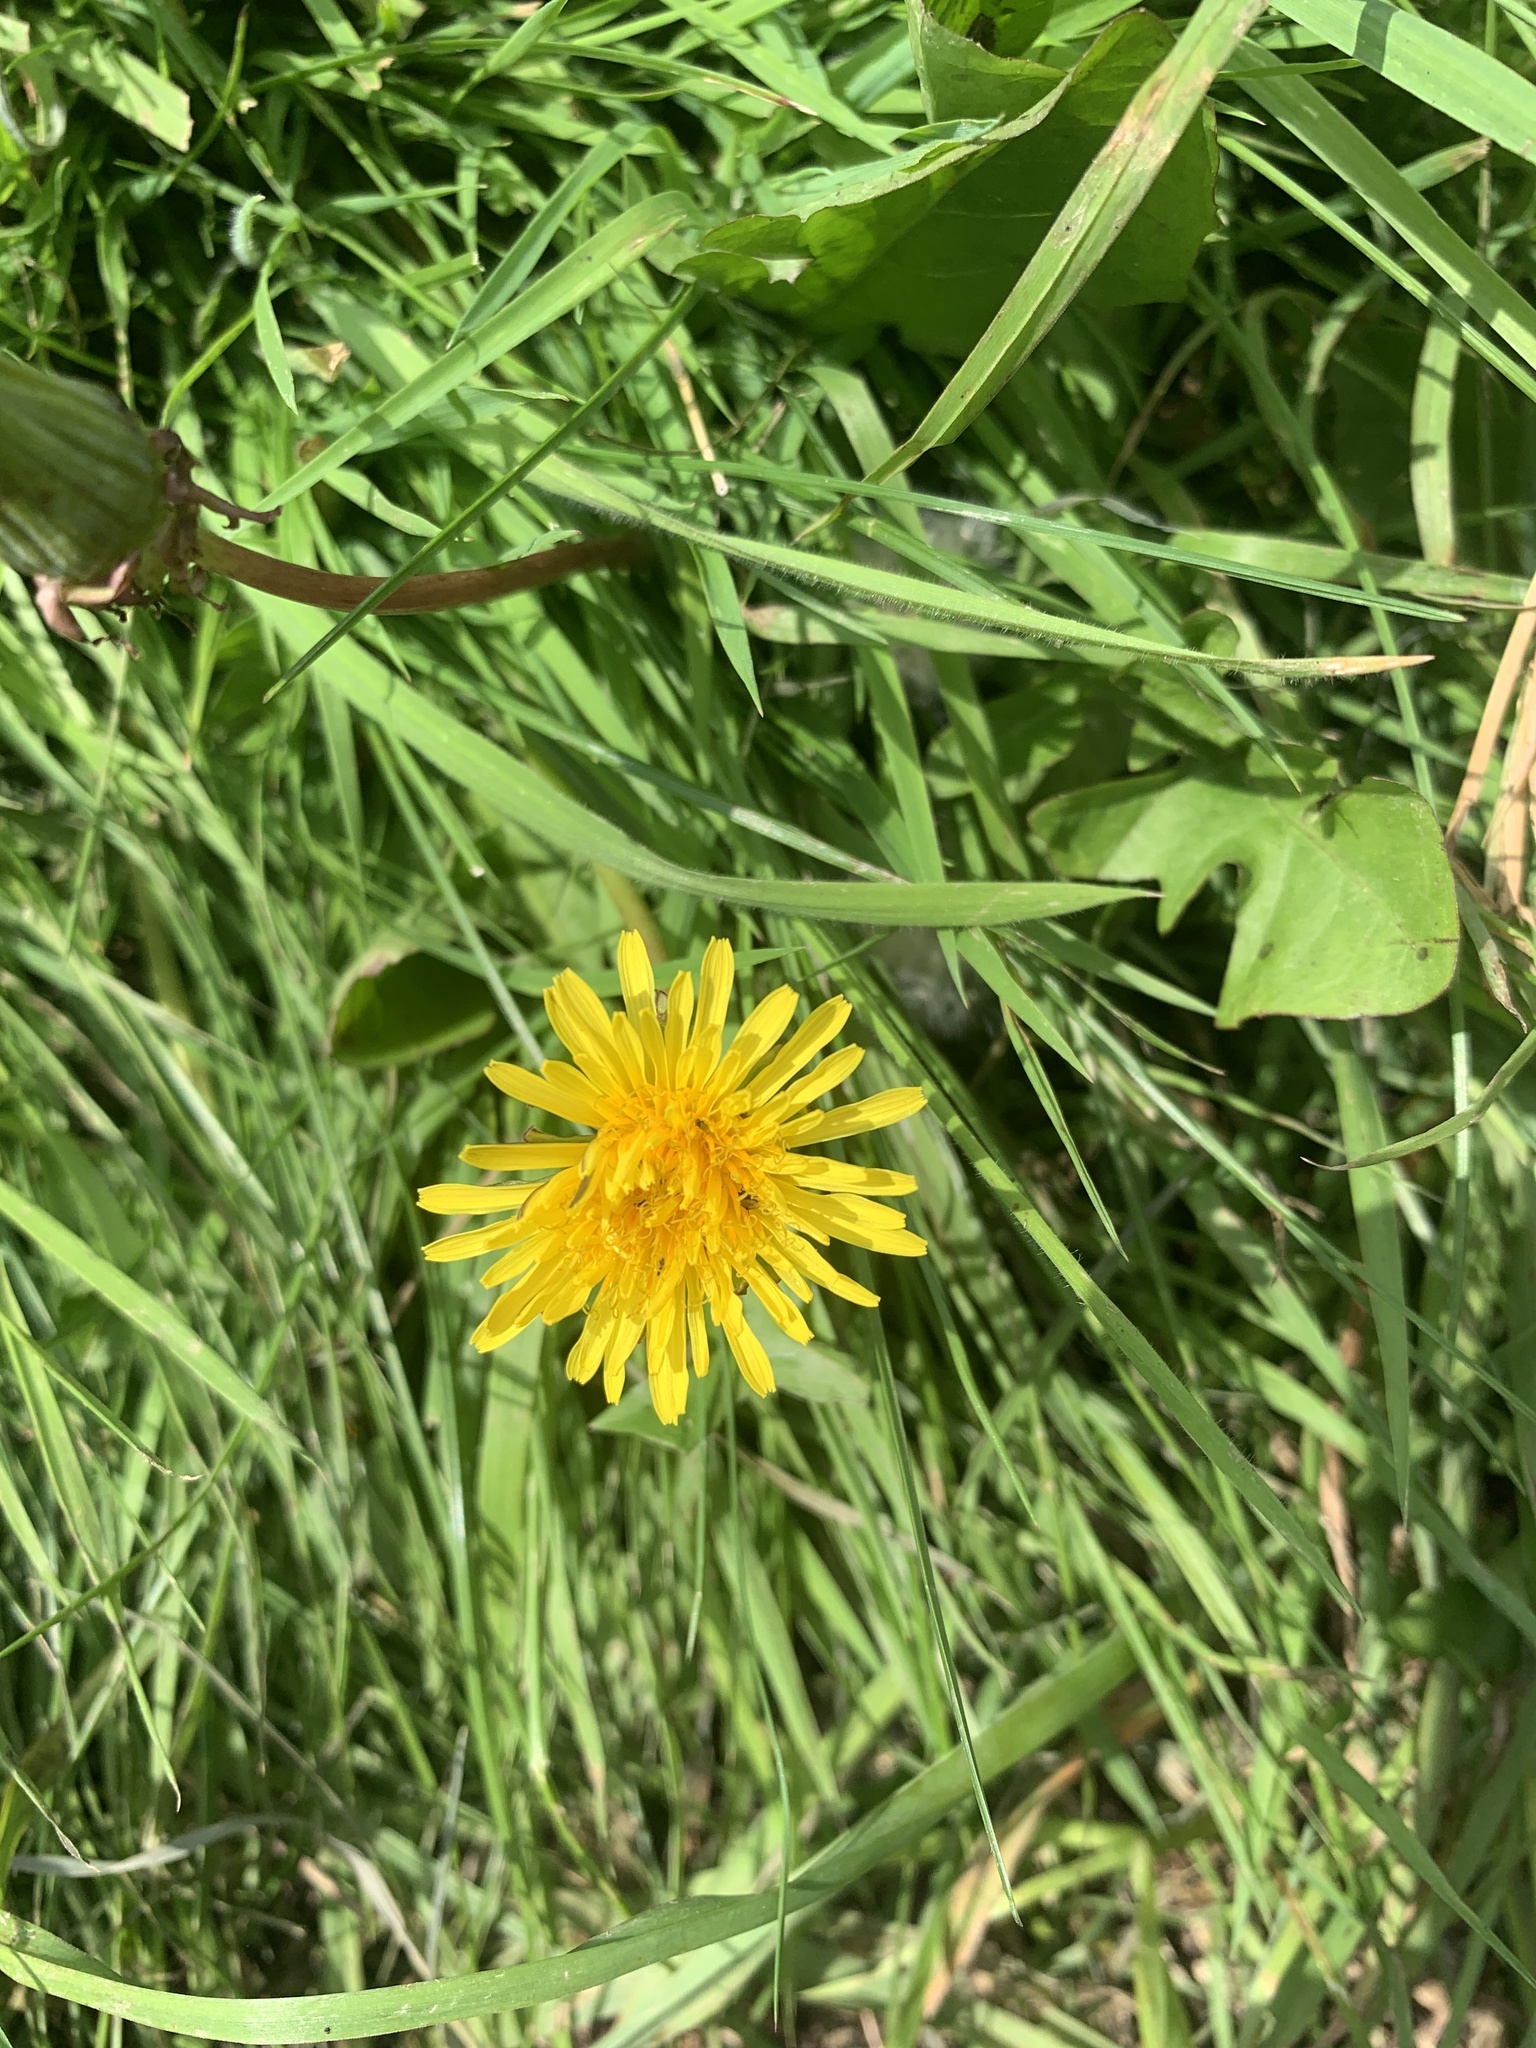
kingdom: Plantae
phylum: Tracheophyta
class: Magnoliopsida
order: Asterales
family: Asteraceae
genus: Taraxacum
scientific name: Taraxacum officinale
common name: Common dandelion
